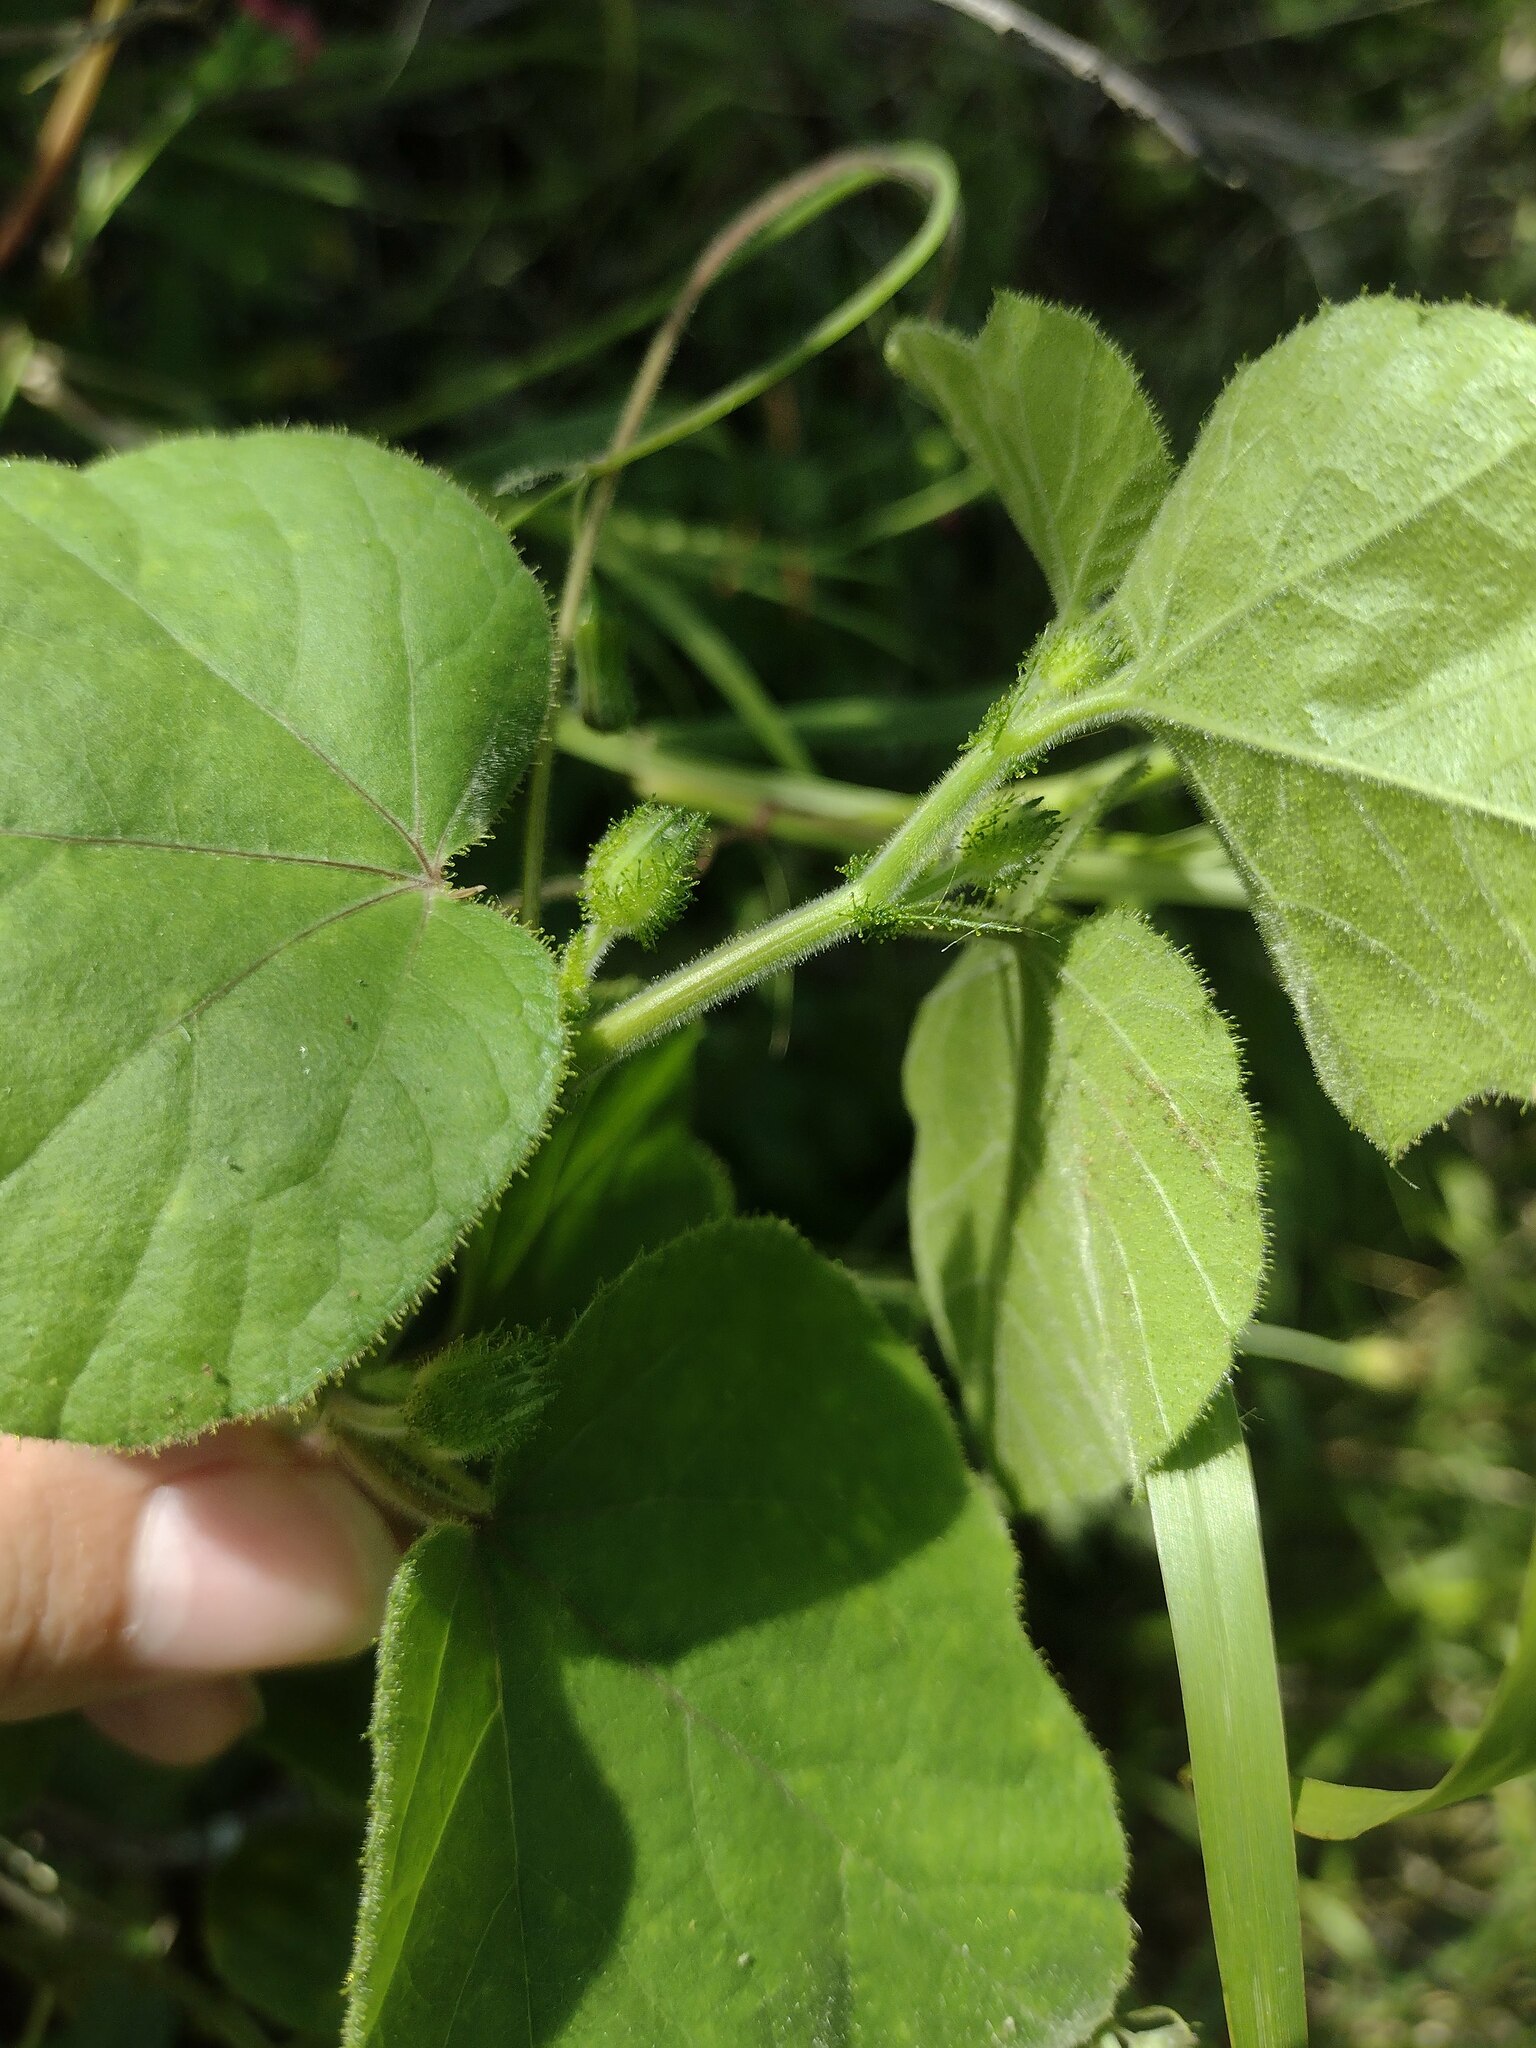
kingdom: Plantae
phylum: Tracheophyta
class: Magnoliopsida
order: Malpighiales
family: Passifloraceae
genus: Passiflora
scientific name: Passiflora foetida
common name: Fetid passionflower
